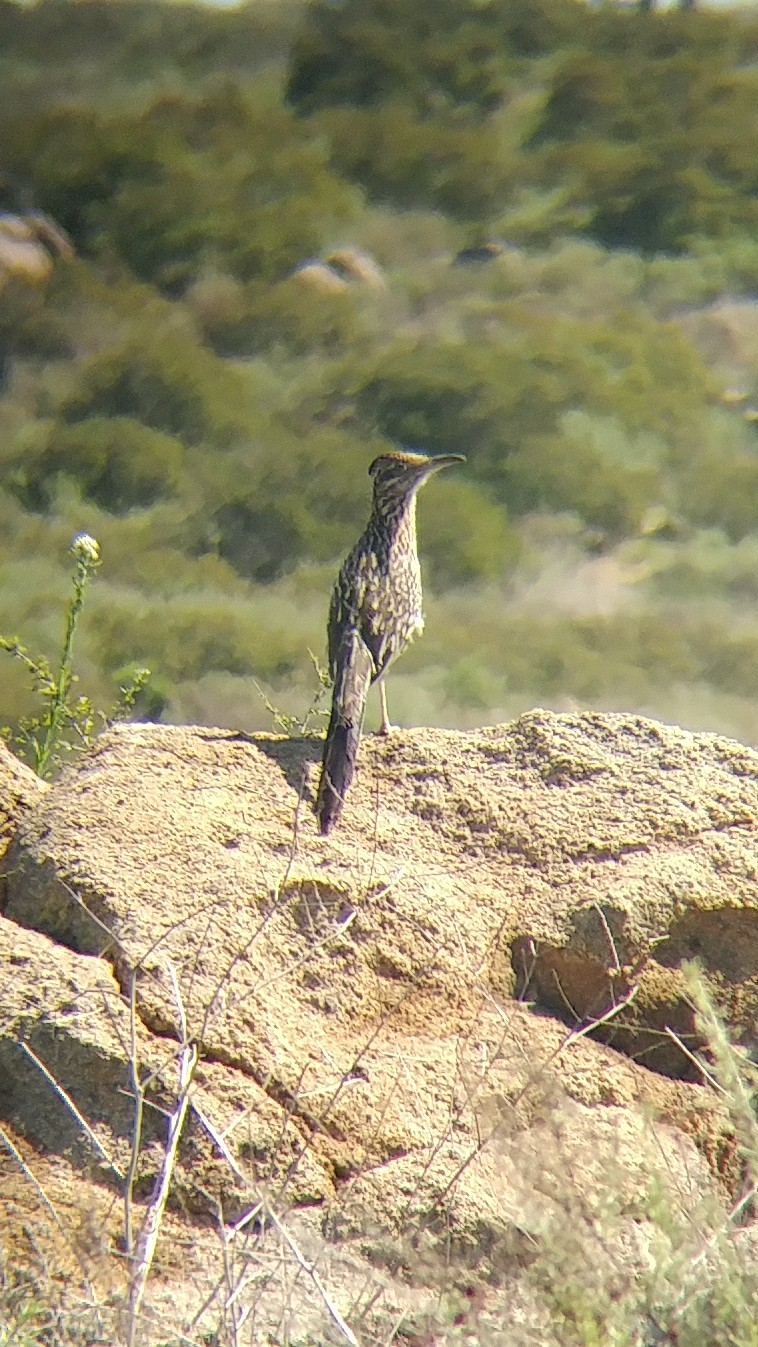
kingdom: Animalia
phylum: Chordata
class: Aves
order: Cuculiformes
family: Cuculidae
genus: Geococcyx
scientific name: Geococcyx californianus
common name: Greater roadrunner
